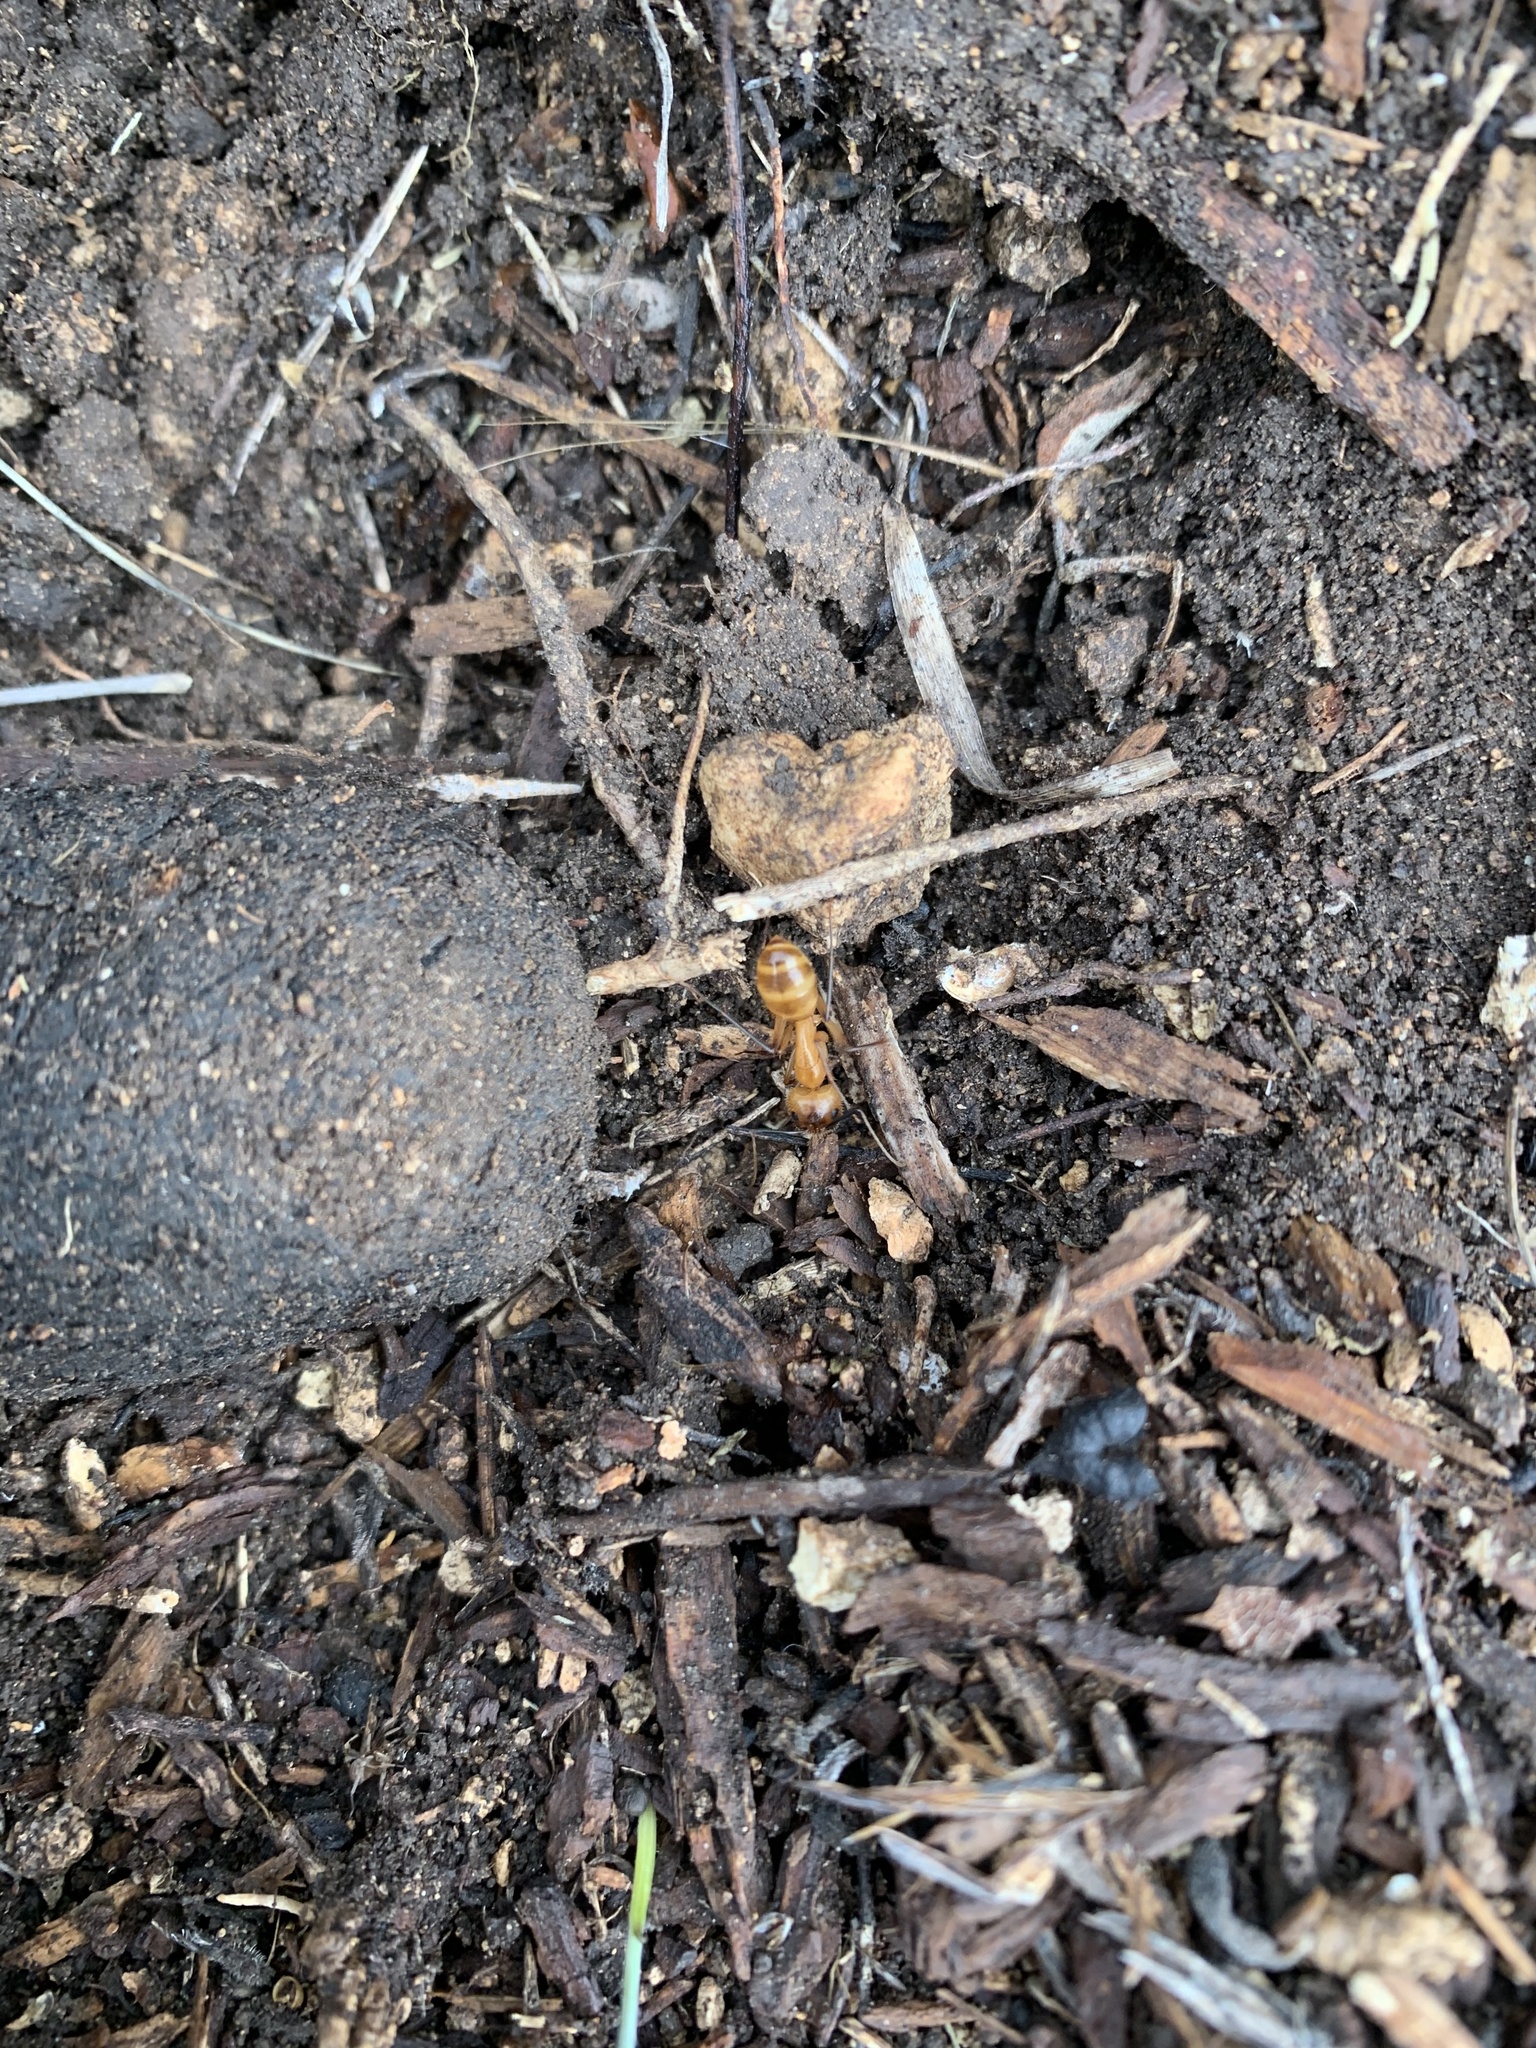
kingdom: Animalia
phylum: Arthropoda
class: Insecta
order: Hymenoptera
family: Formicidae
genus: Camponotus
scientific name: Camponotus festinatus
